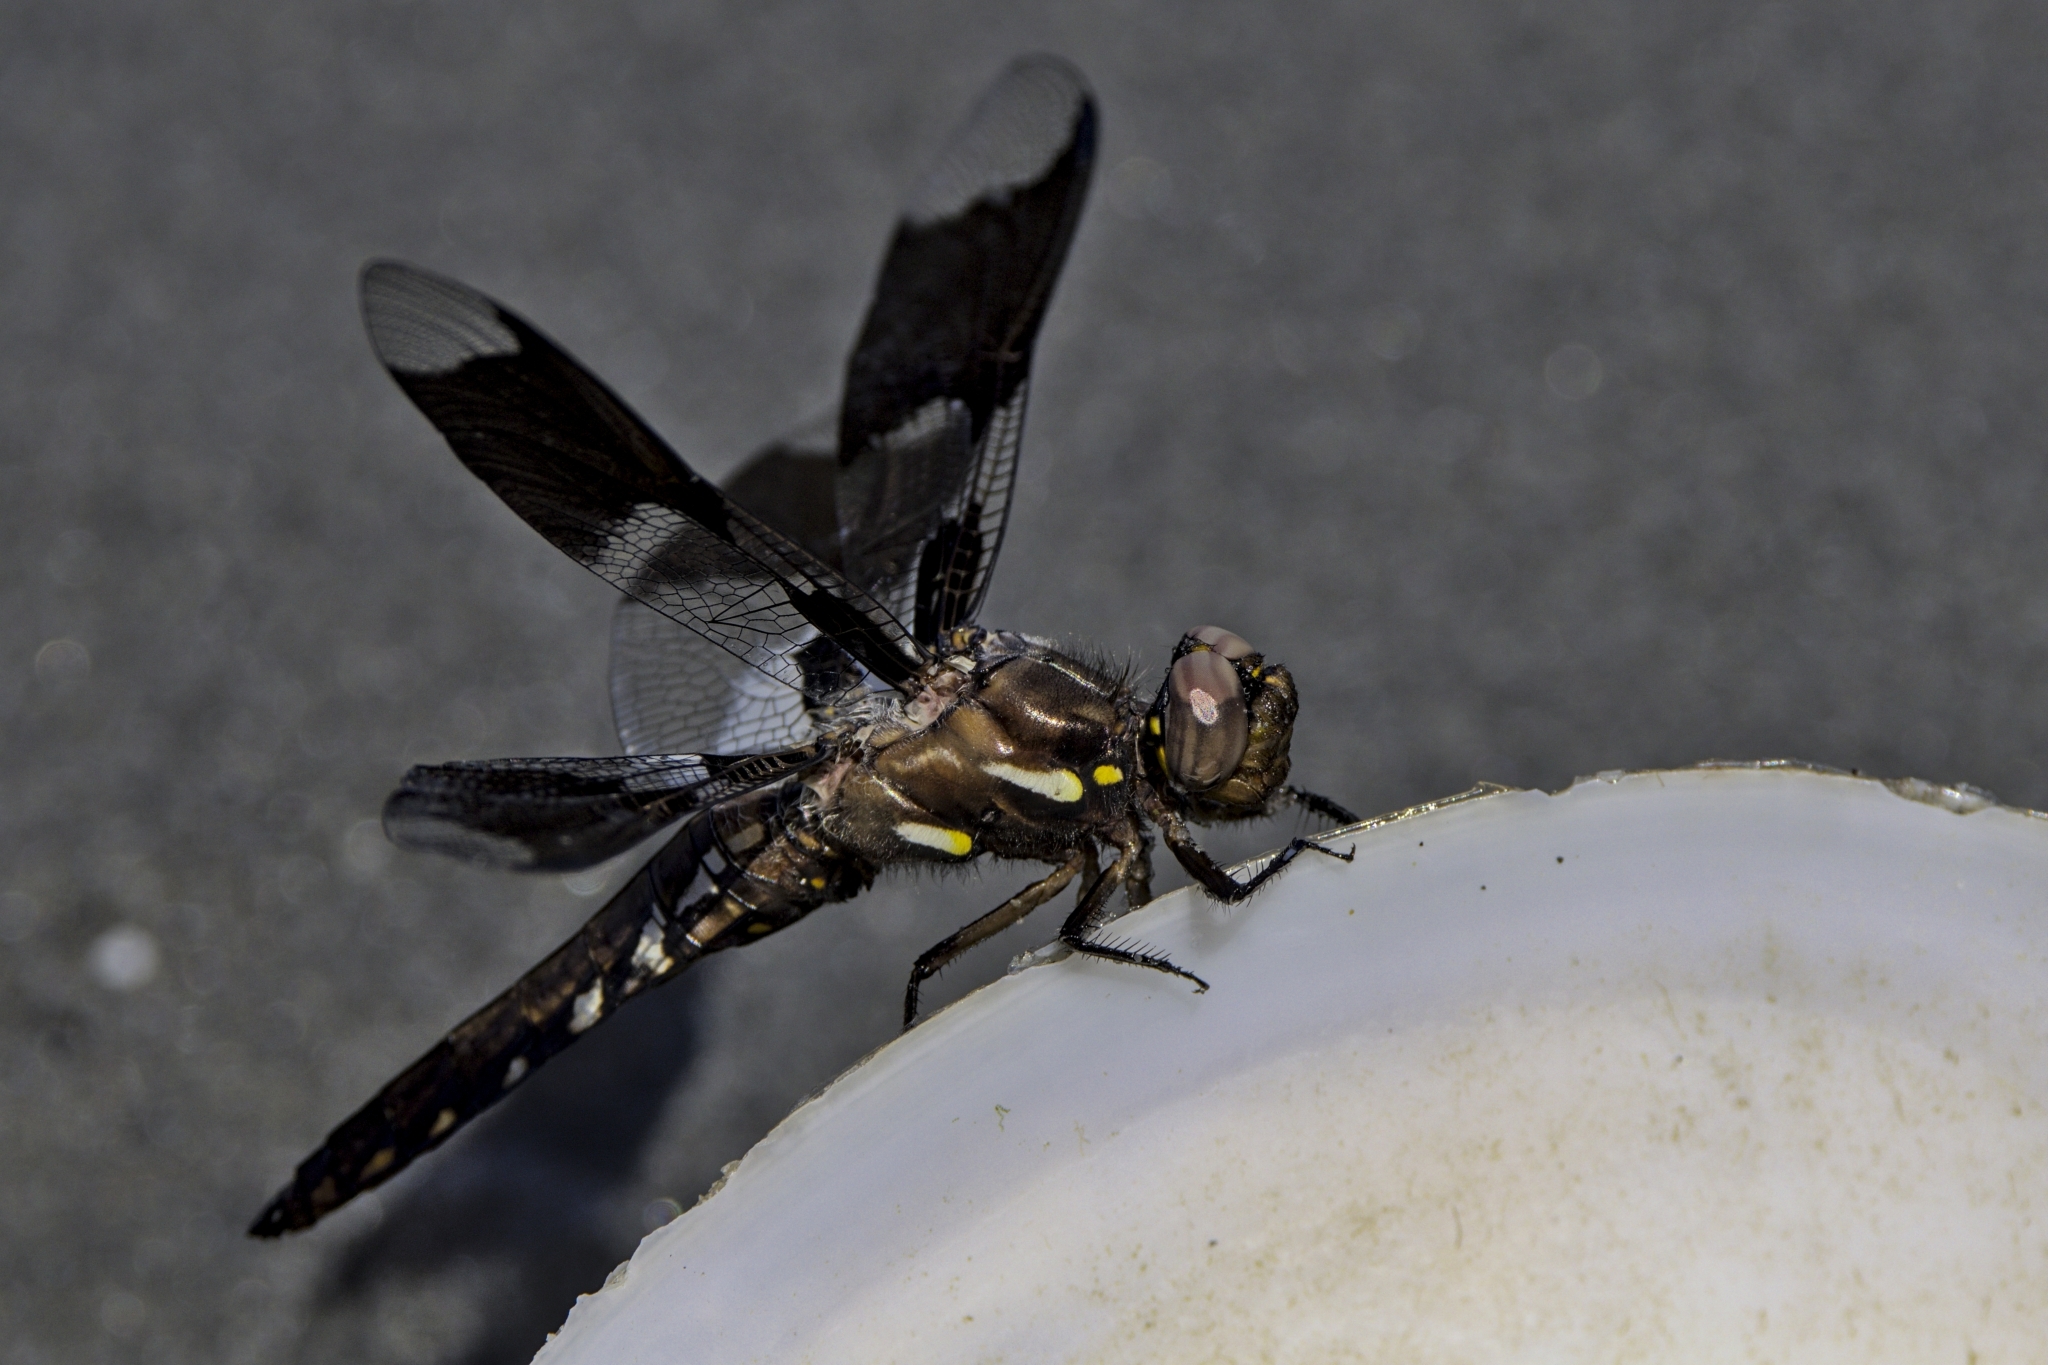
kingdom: Animalia
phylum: Arthropoda
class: Insecta
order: Odonata
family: Libellulidae
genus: Plathemis
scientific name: Plathemis lydia
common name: Common whitetail
